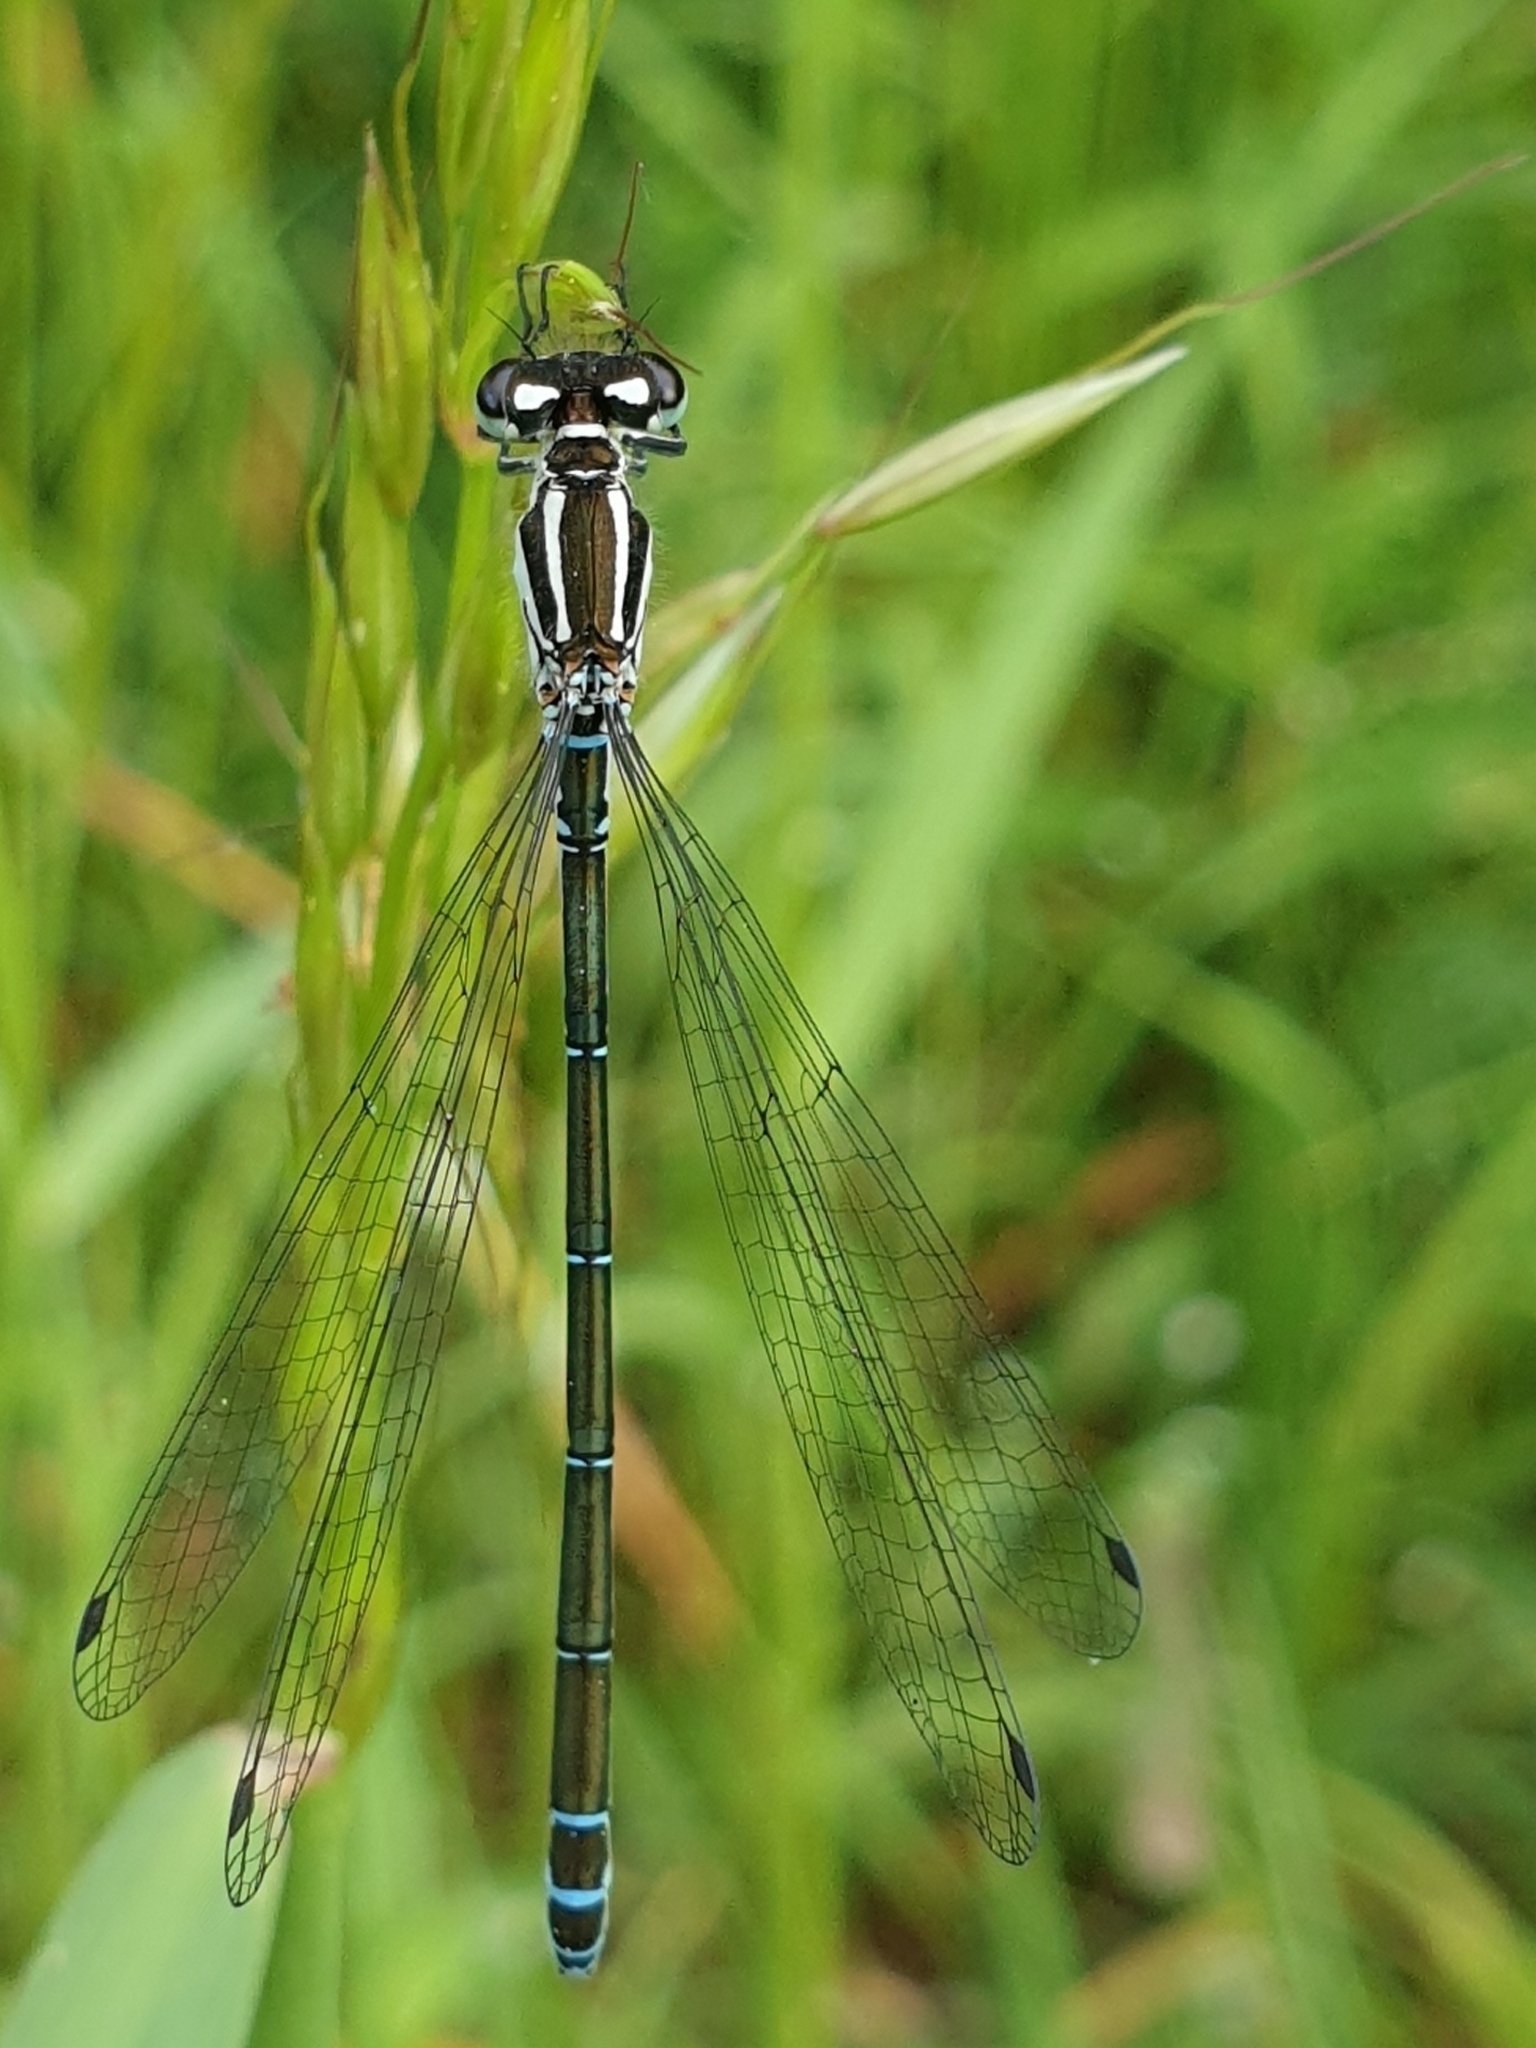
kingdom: Animalia
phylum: Arthropoda
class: Insecta
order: Odonata
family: Coenagrionidae
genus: Coenagrion
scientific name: Coenagrion puella
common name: Azure damselfly
